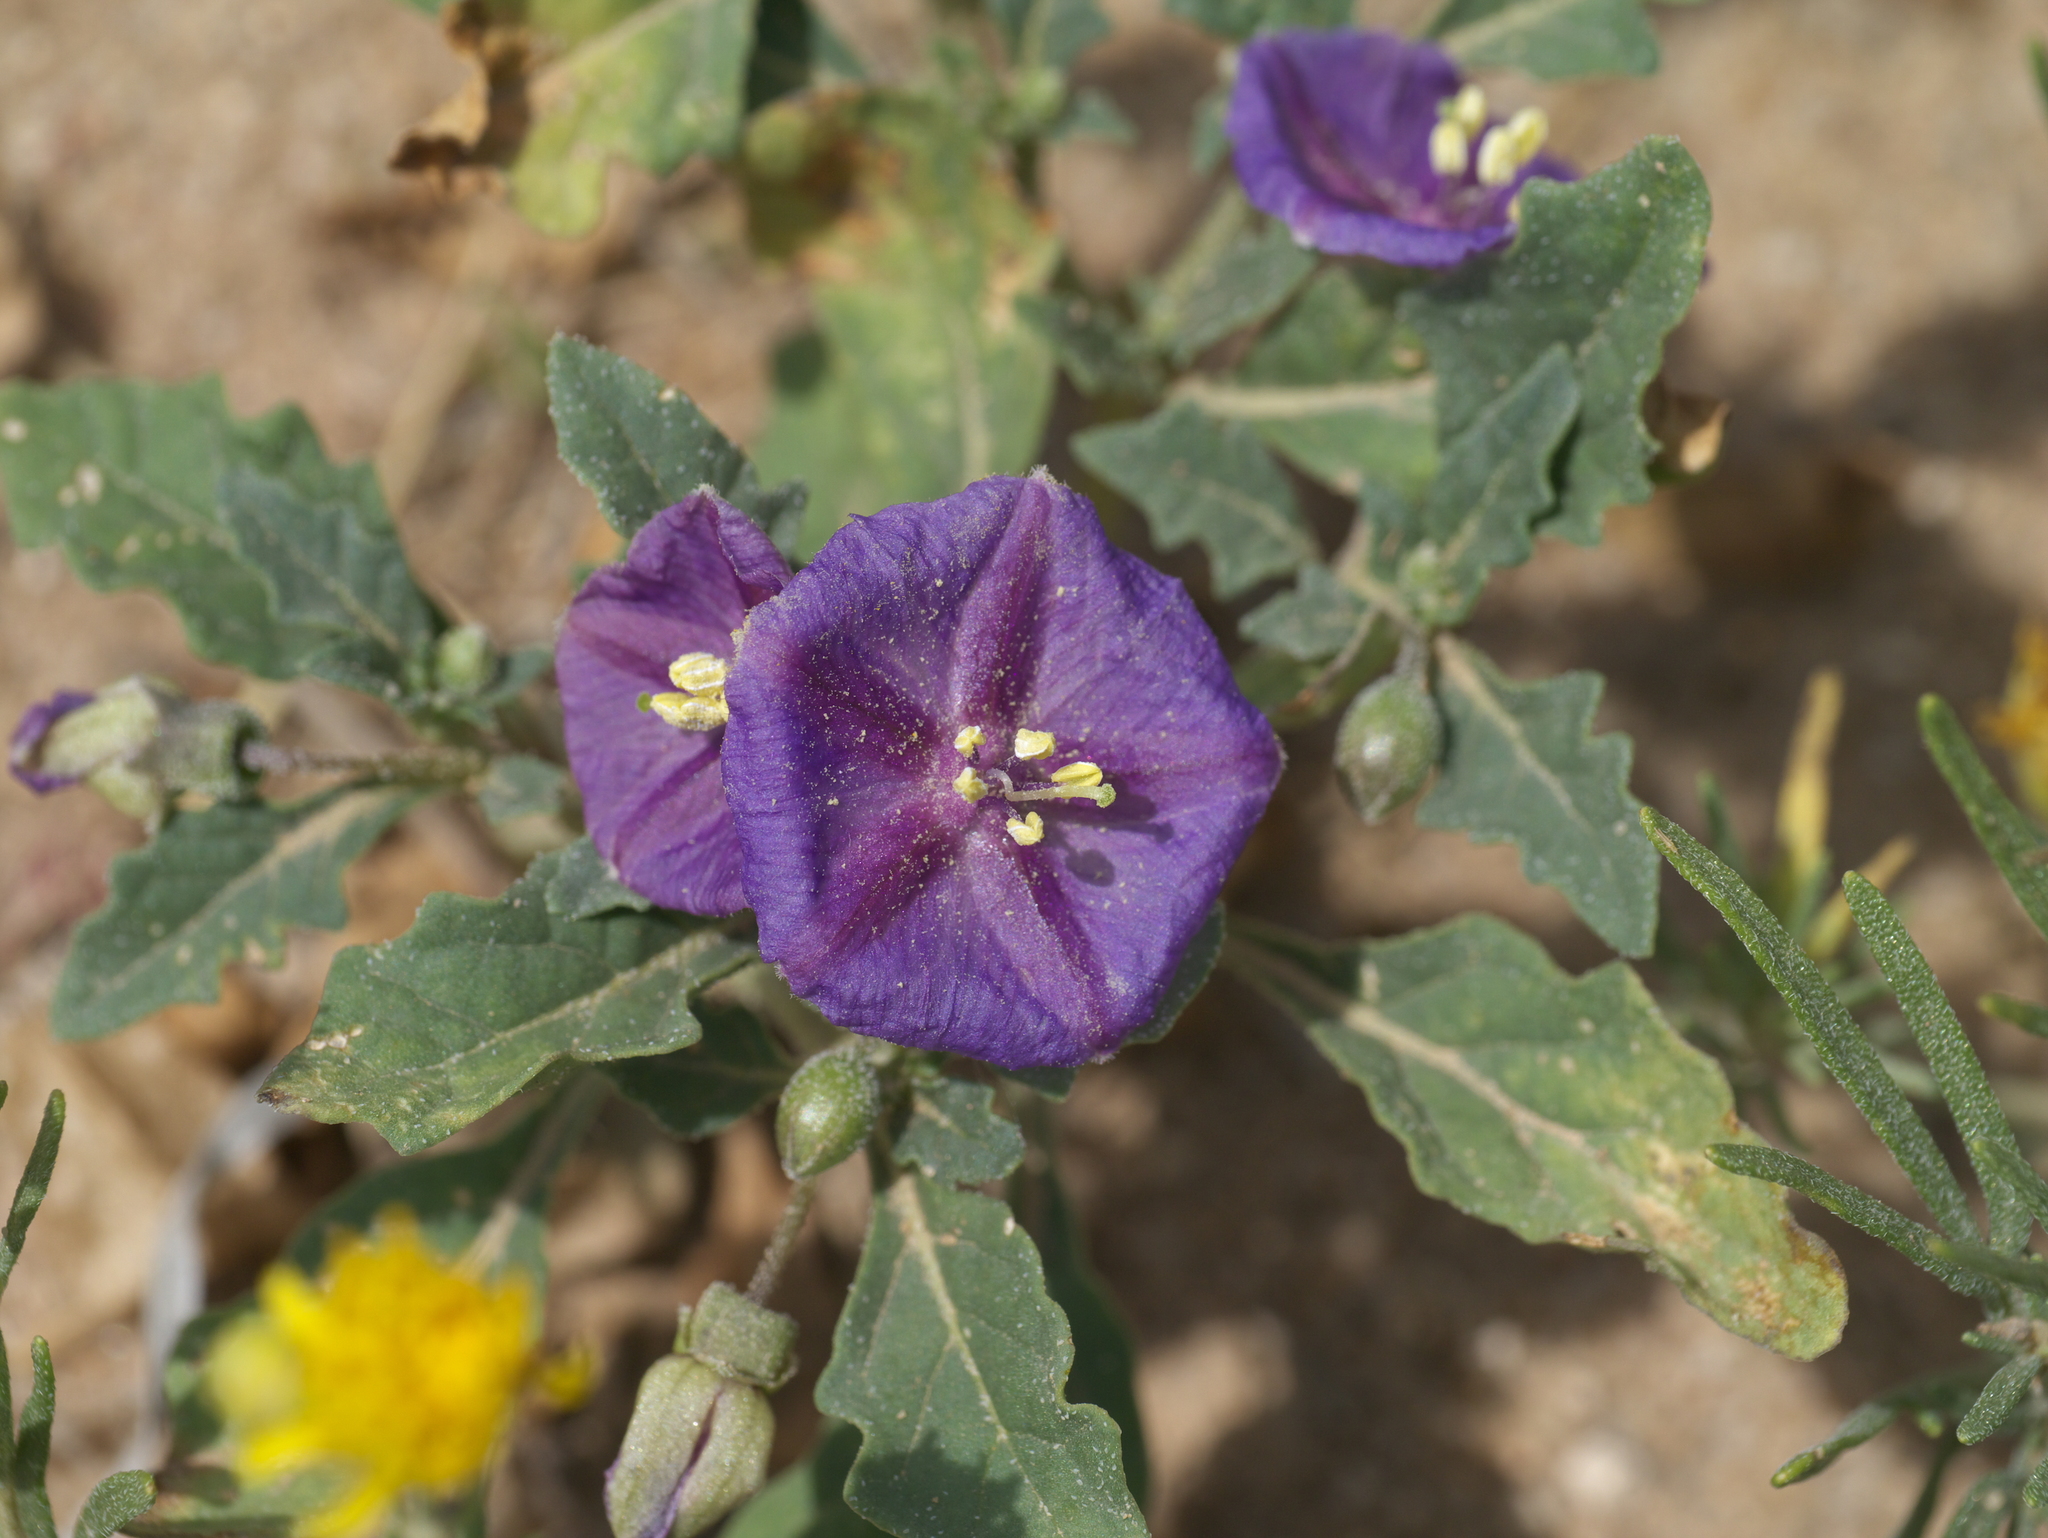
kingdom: Plantae
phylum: Tracheophyta
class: Magnoliopsida
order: Solanales
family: Solanaceae
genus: Quincula
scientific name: Quincula lobata
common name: Purple-ground-cherry
